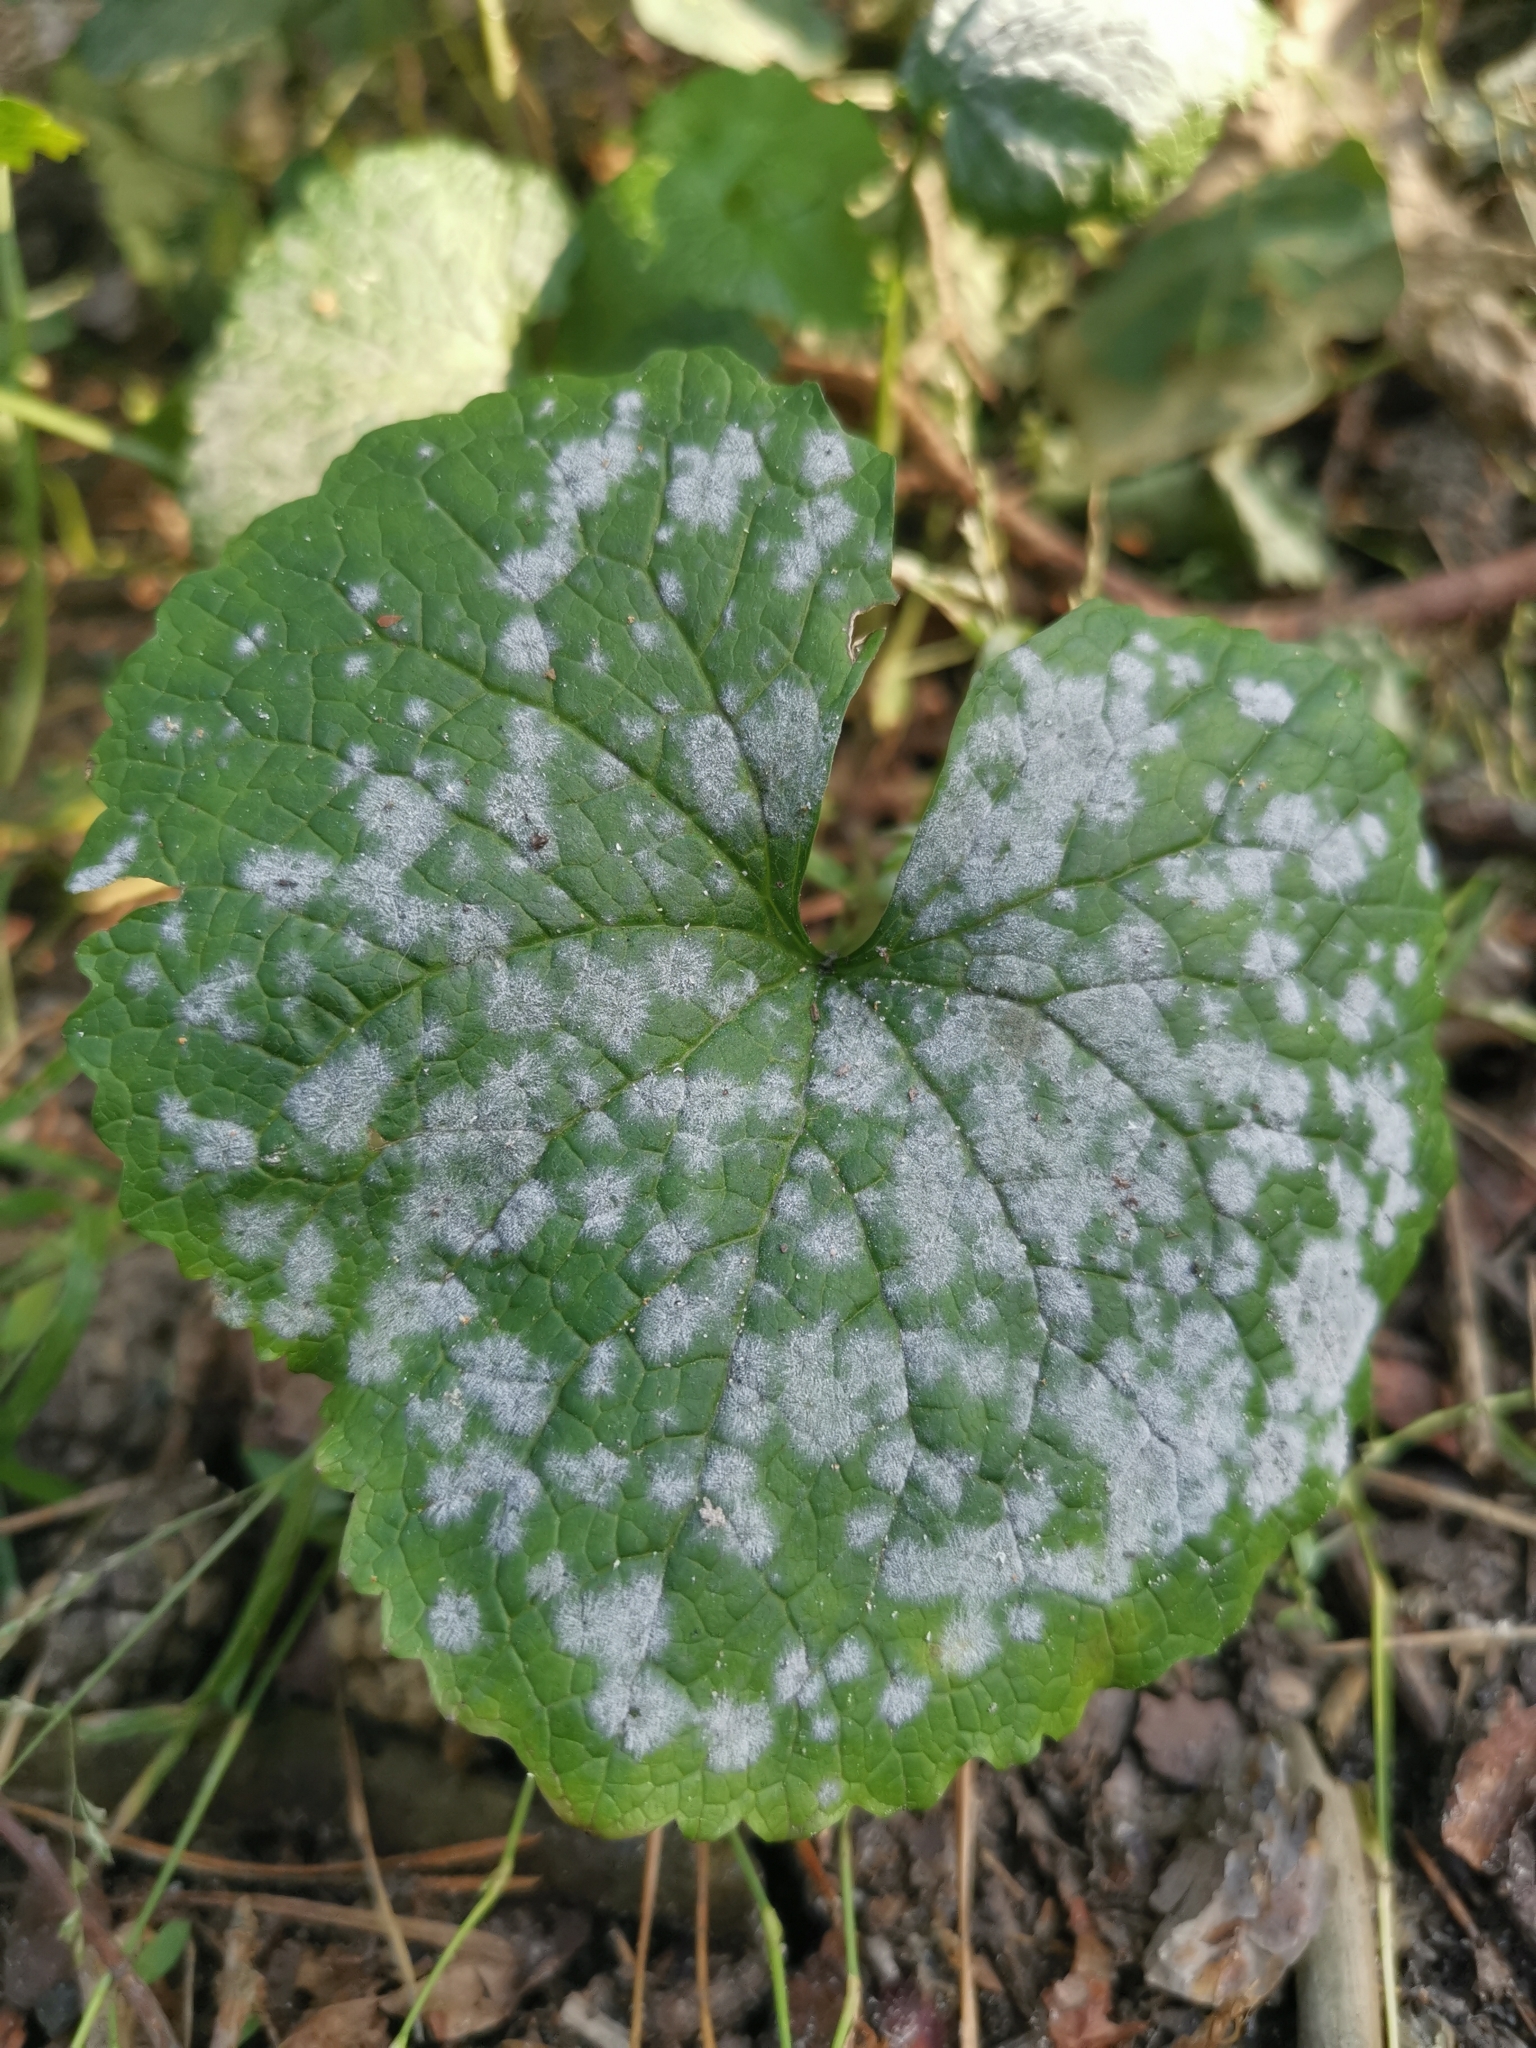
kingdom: Fungi
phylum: Ascomycota
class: Leotiomycetes
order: Helotiales
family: Erysiphaceae
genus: Erysiphe
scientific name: Erysiphe cruciferarum
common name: Brassica powdery mildew
